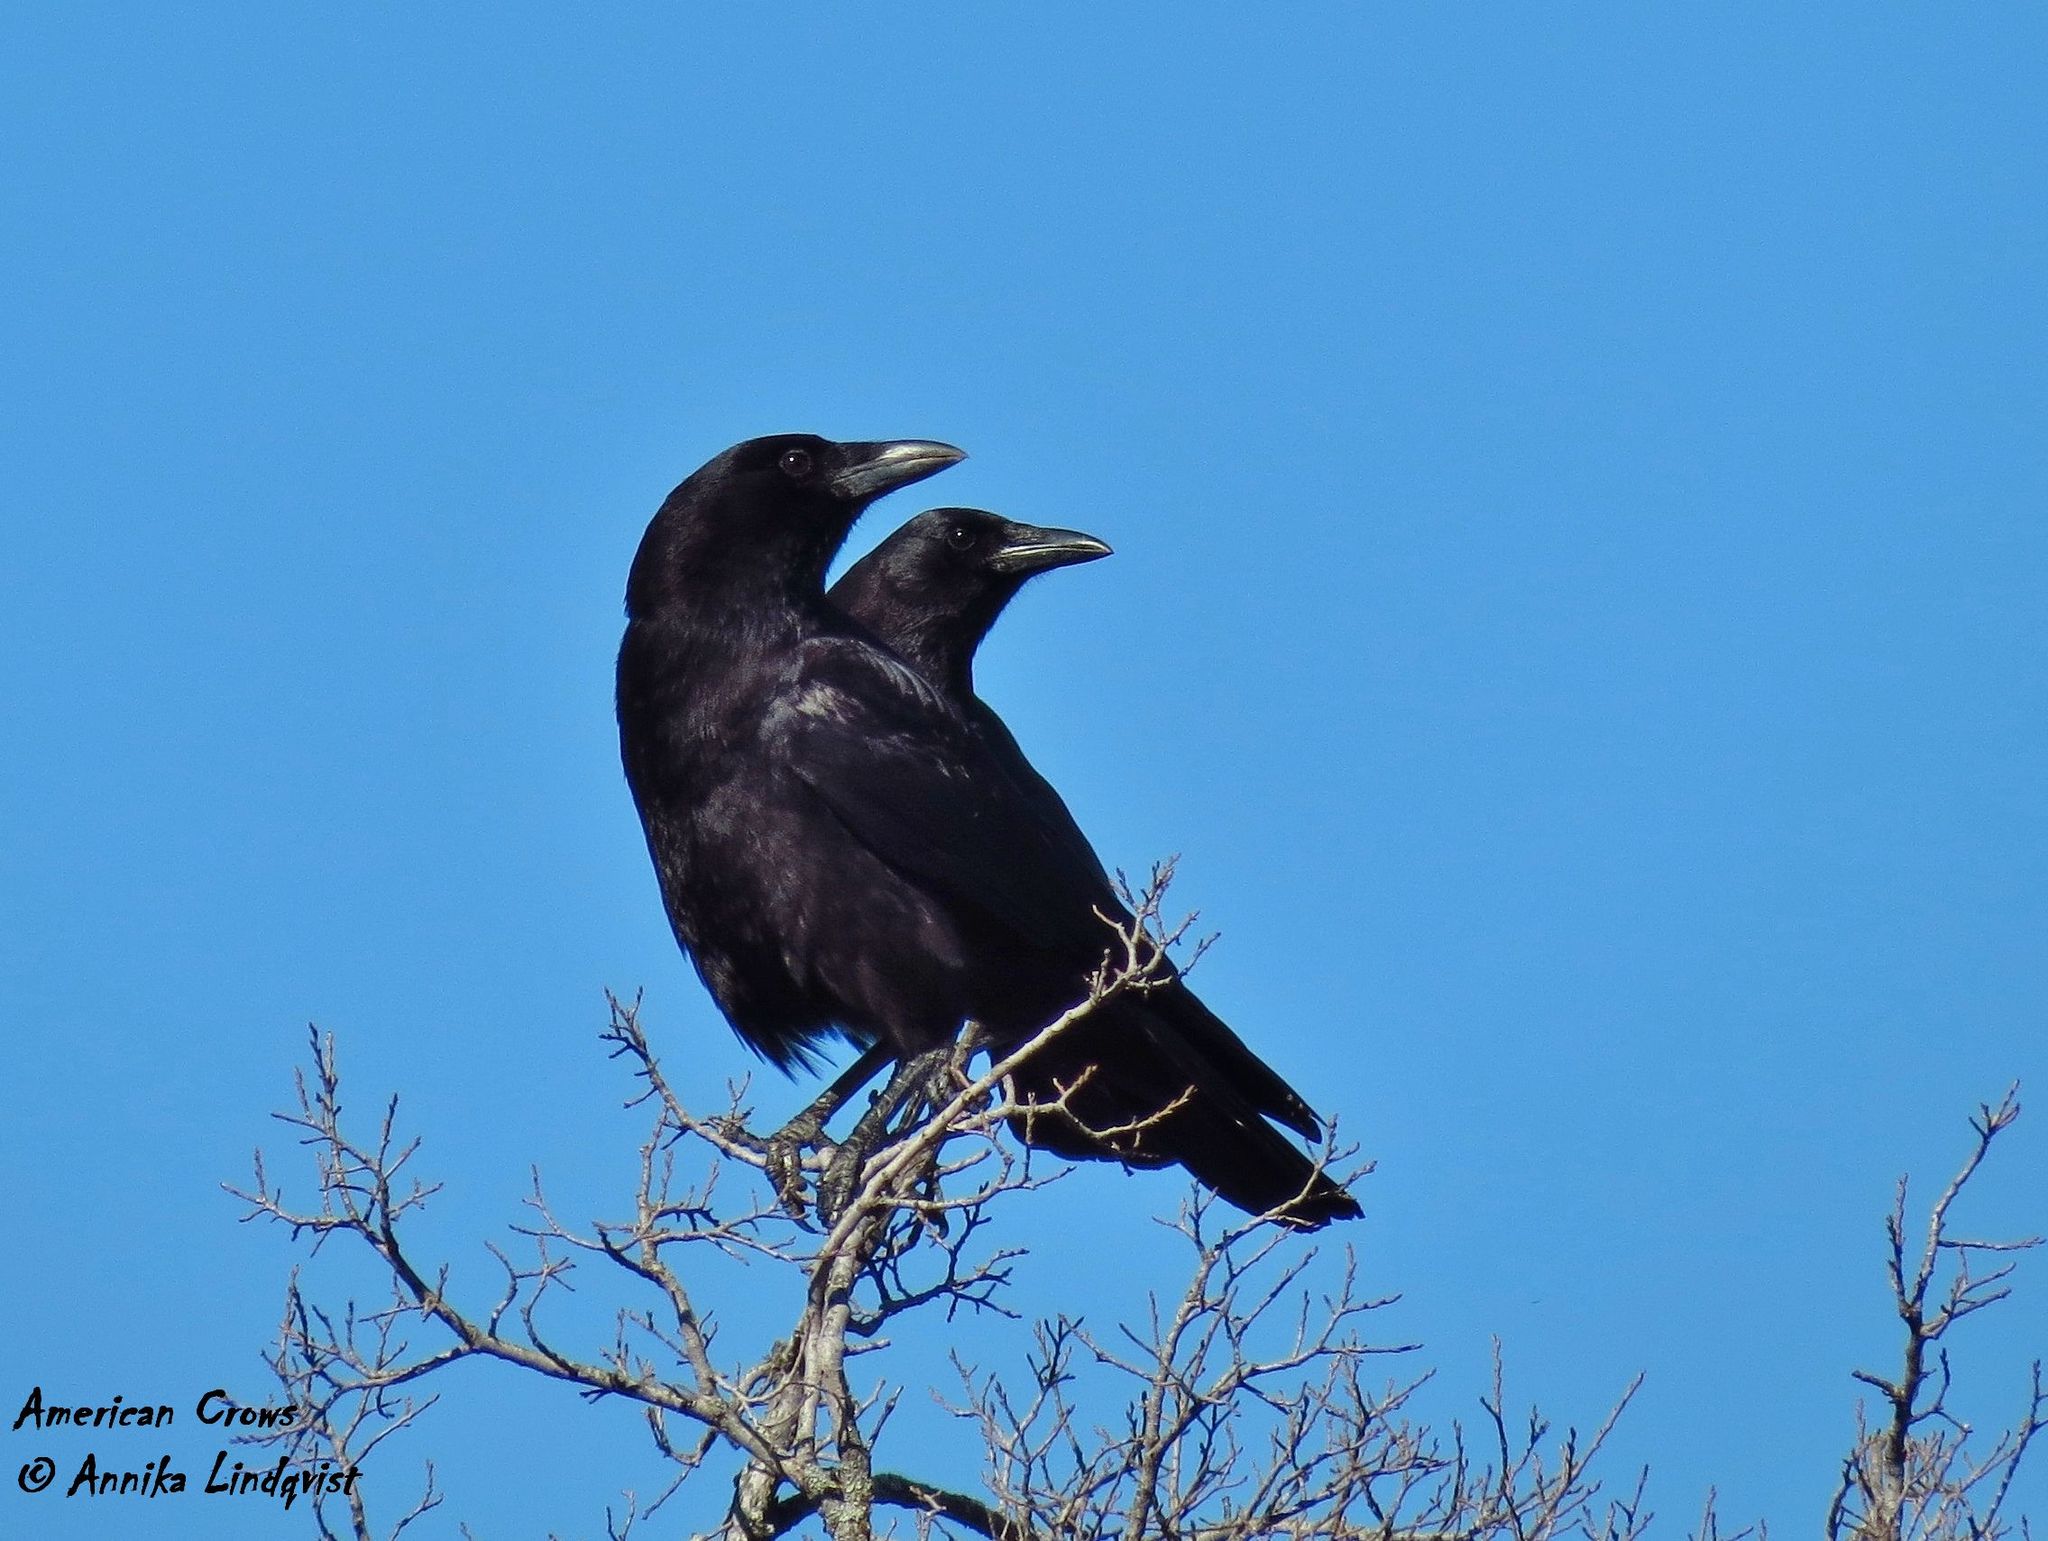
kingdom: Animalia
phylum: Chordata
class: Aves
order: Passeriformes
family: Corvidae
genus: Corvus
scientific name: Corvus brachyrhynchos
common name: American crow
